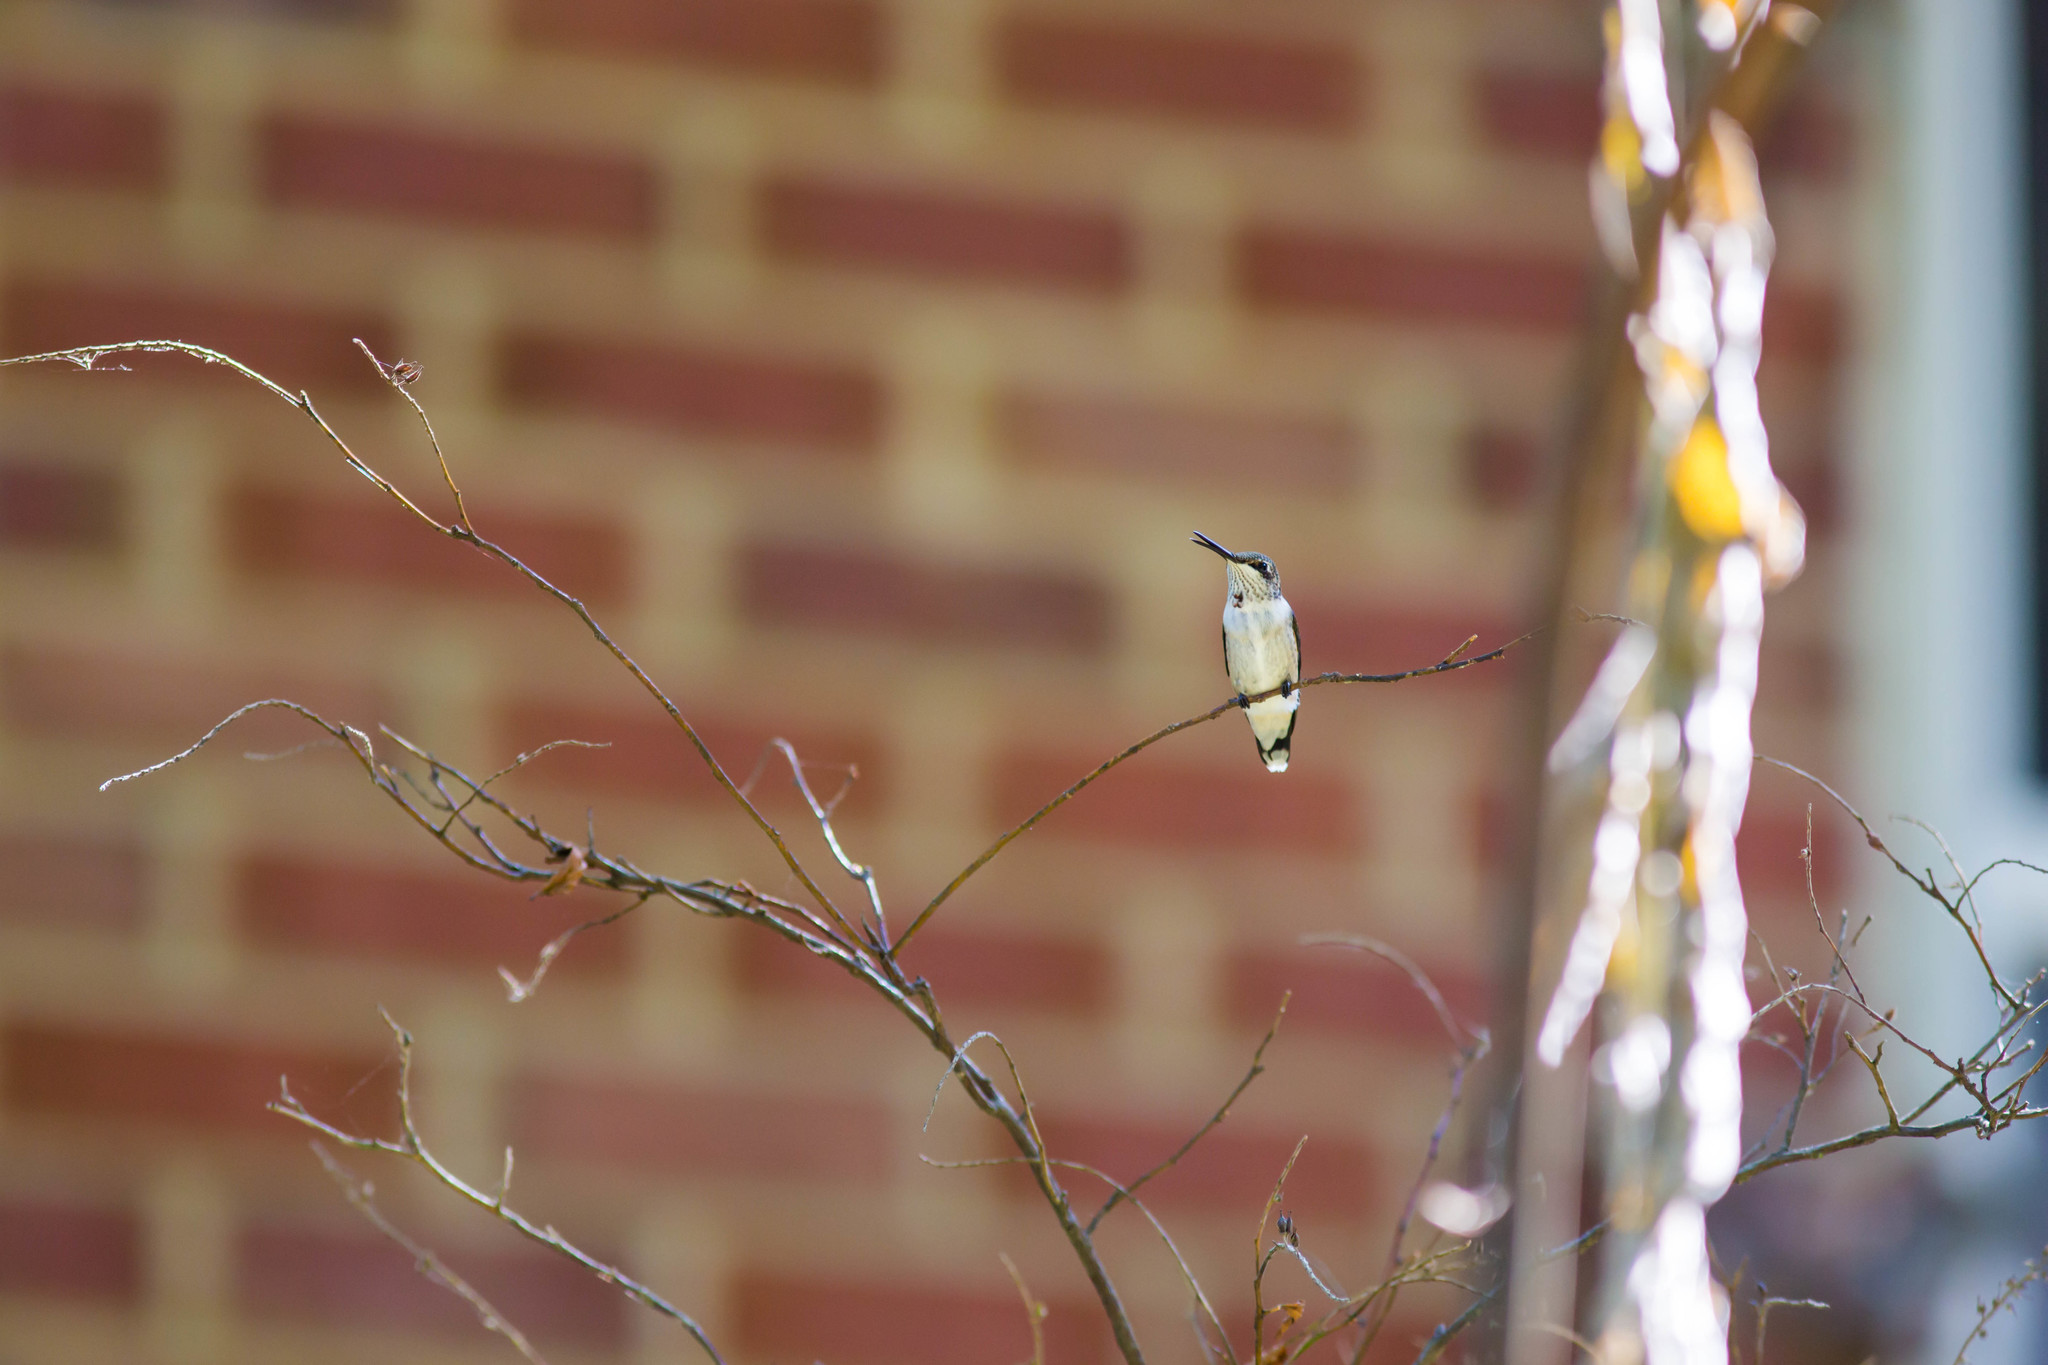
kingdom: Animalia
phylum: Chordata
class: Aves
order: Apodiformes
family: Trochilidae
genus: Archilochus
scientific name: Archilochus colubris
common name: Ruby-throated hummingbird
